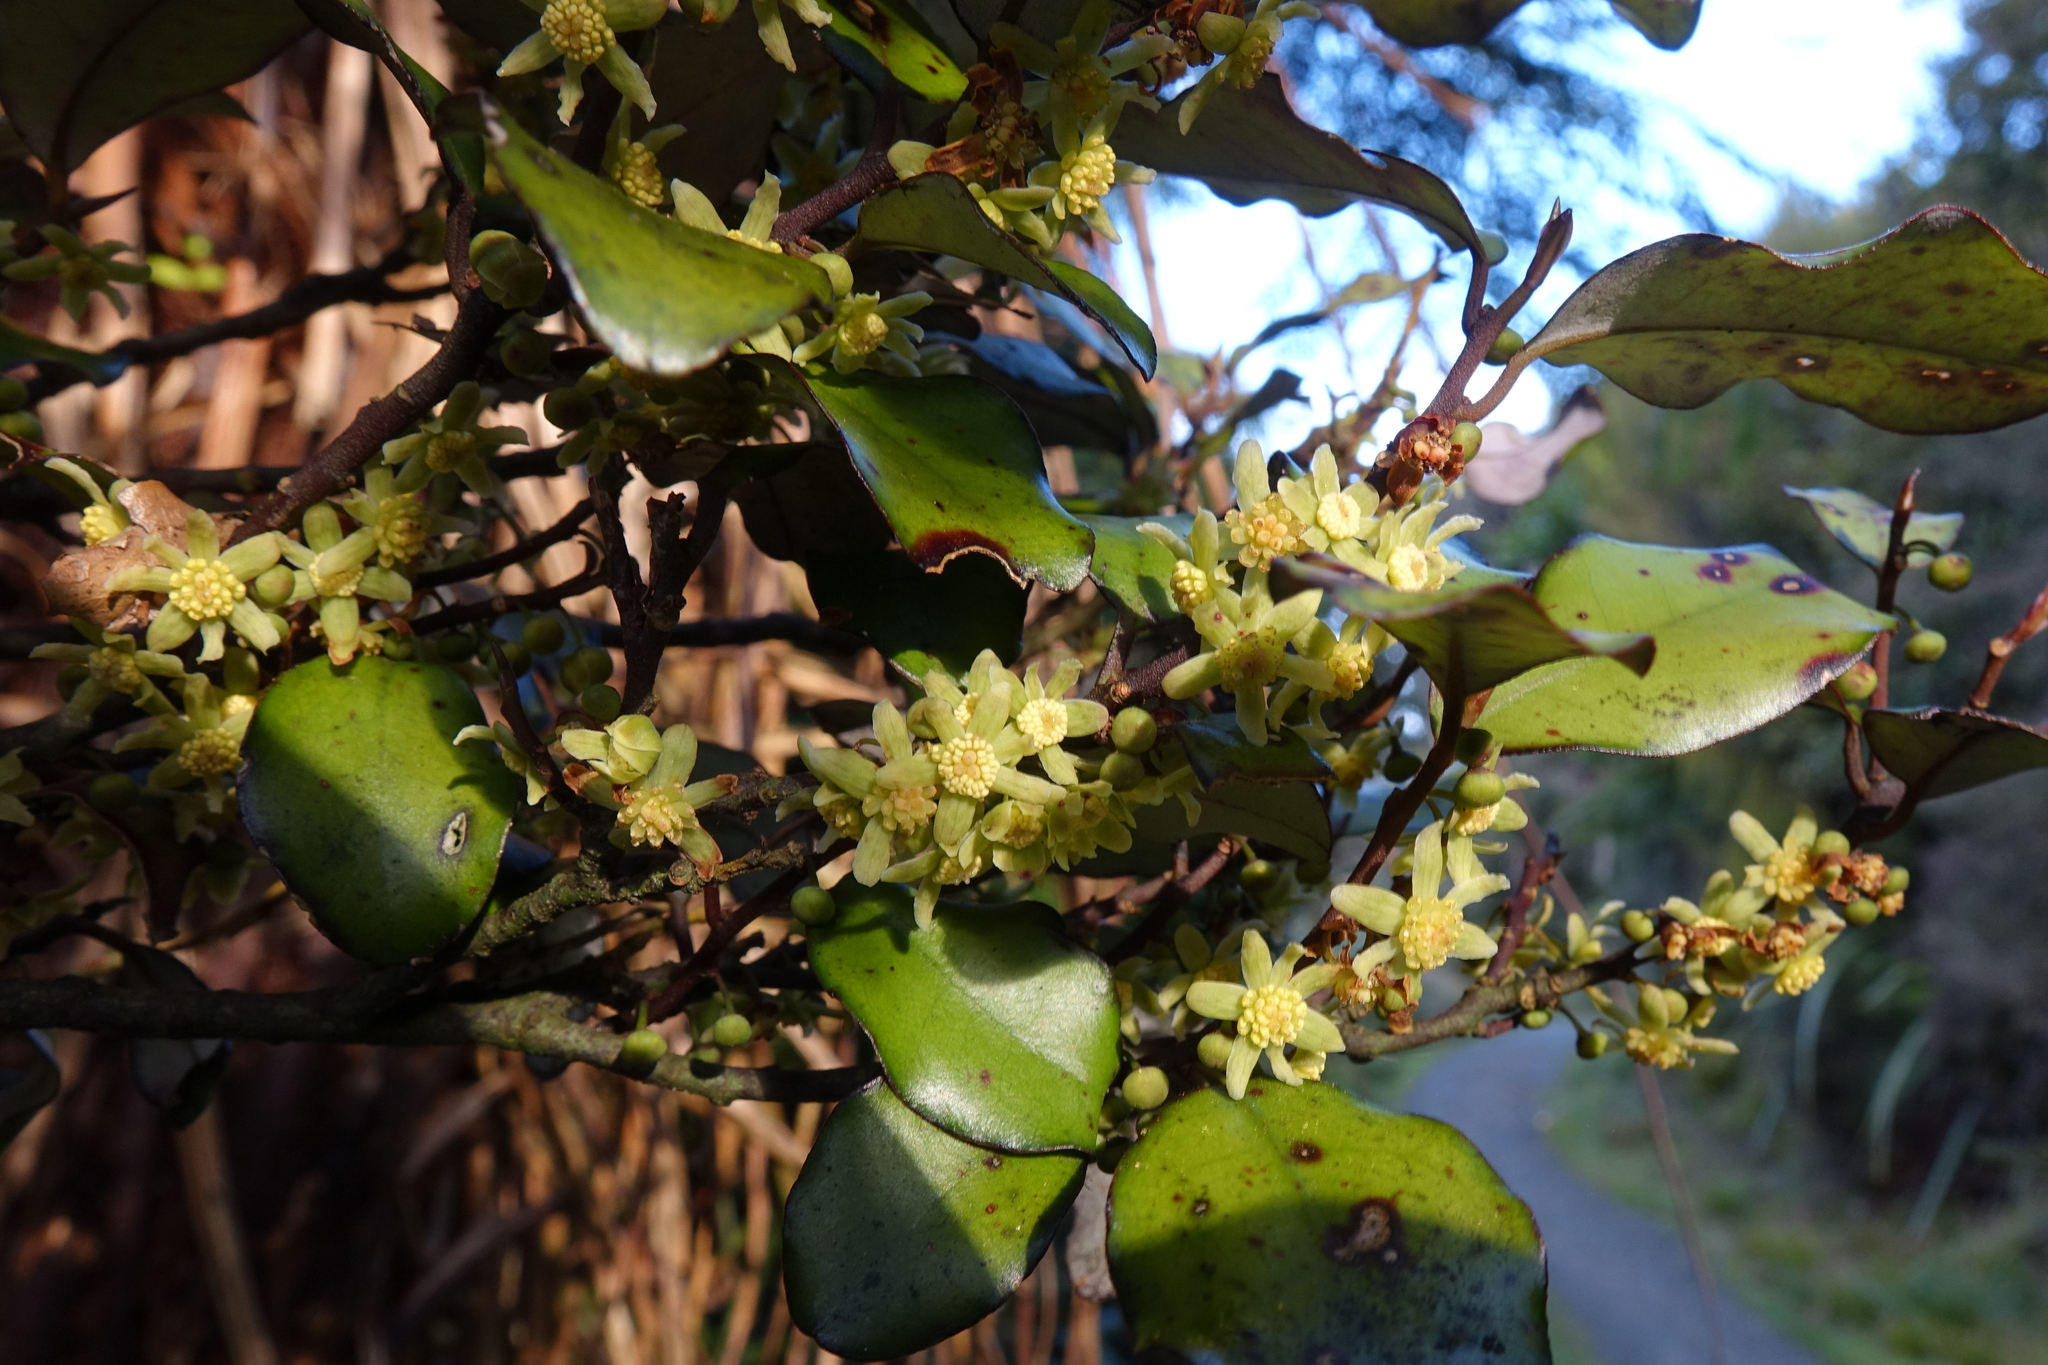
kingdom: Plantae
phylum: Tracheophyta
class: Magnoliopsida
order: Canellales
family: Winteraceae
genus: Pseudowintera
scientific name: Pseudowintera colorata
